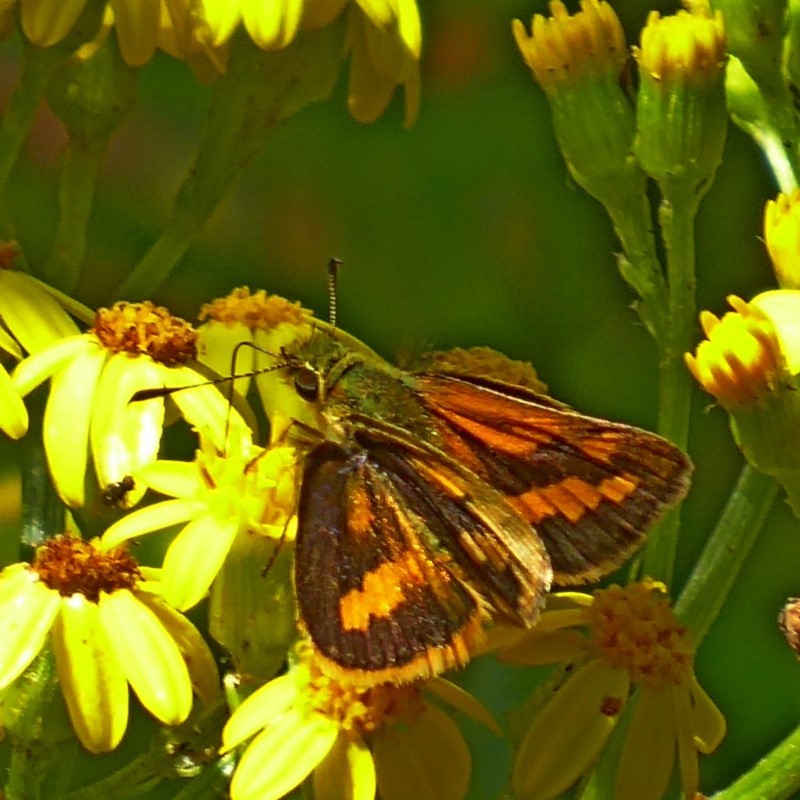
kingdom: Animalia
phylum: Arthropoda
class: Insecta
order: Lepidoptera
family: Hesperiidae
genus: Ocybadistes
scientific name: Ocybadistes flavovittata
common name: Narrow-brand grass-dart
